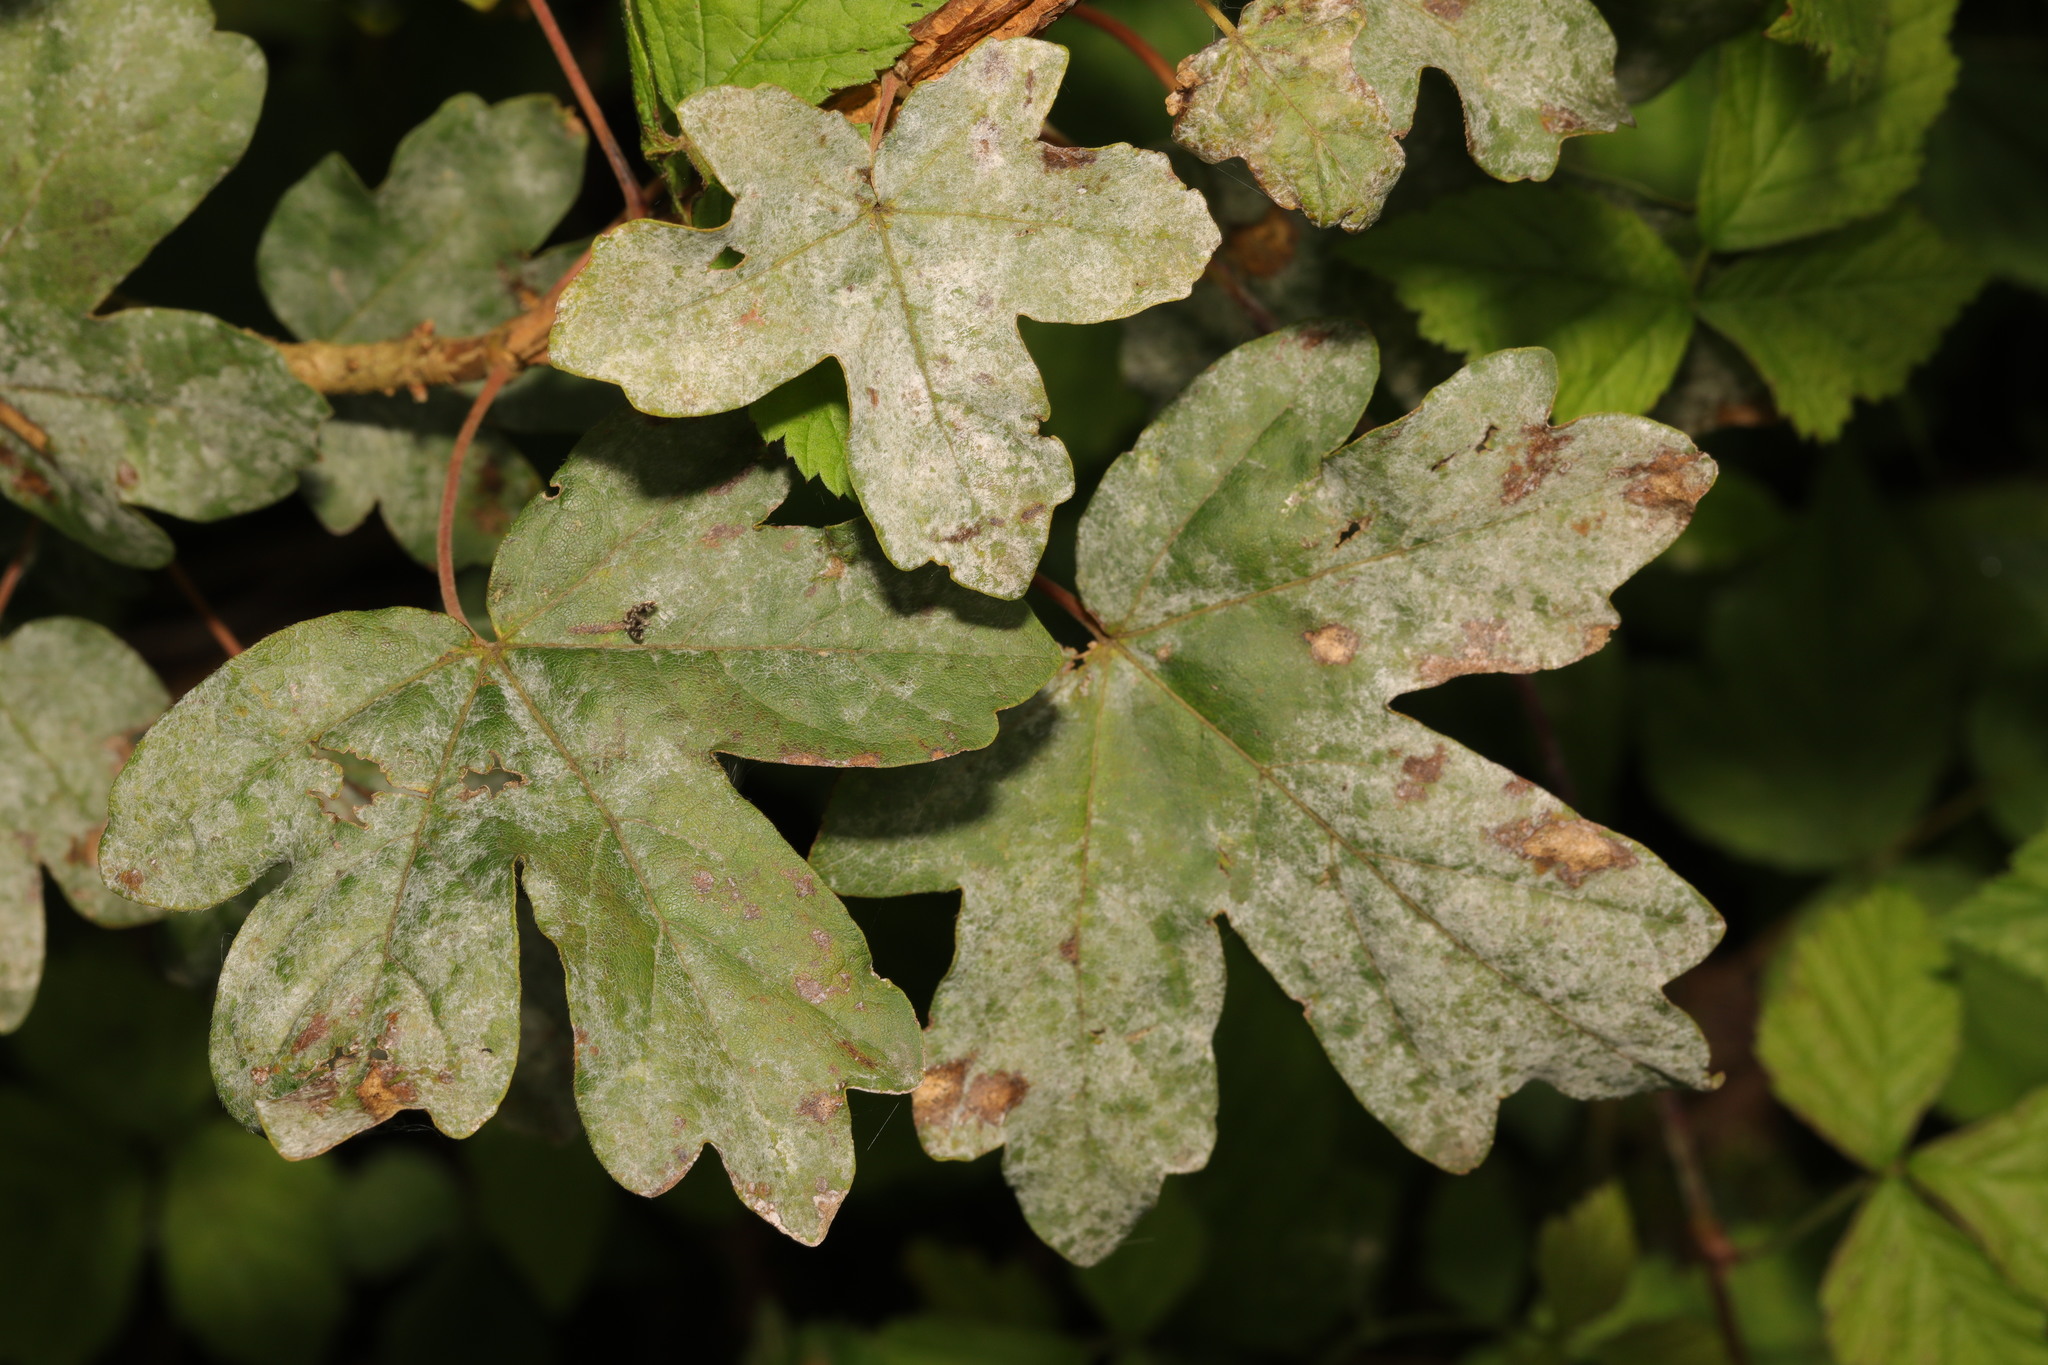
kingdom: Plantae
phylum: Tracheophyta
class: Magnoliopsida
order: Sapindales
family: Sapindaceae
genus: Acer
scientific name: Acer campestre
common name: Field maple
